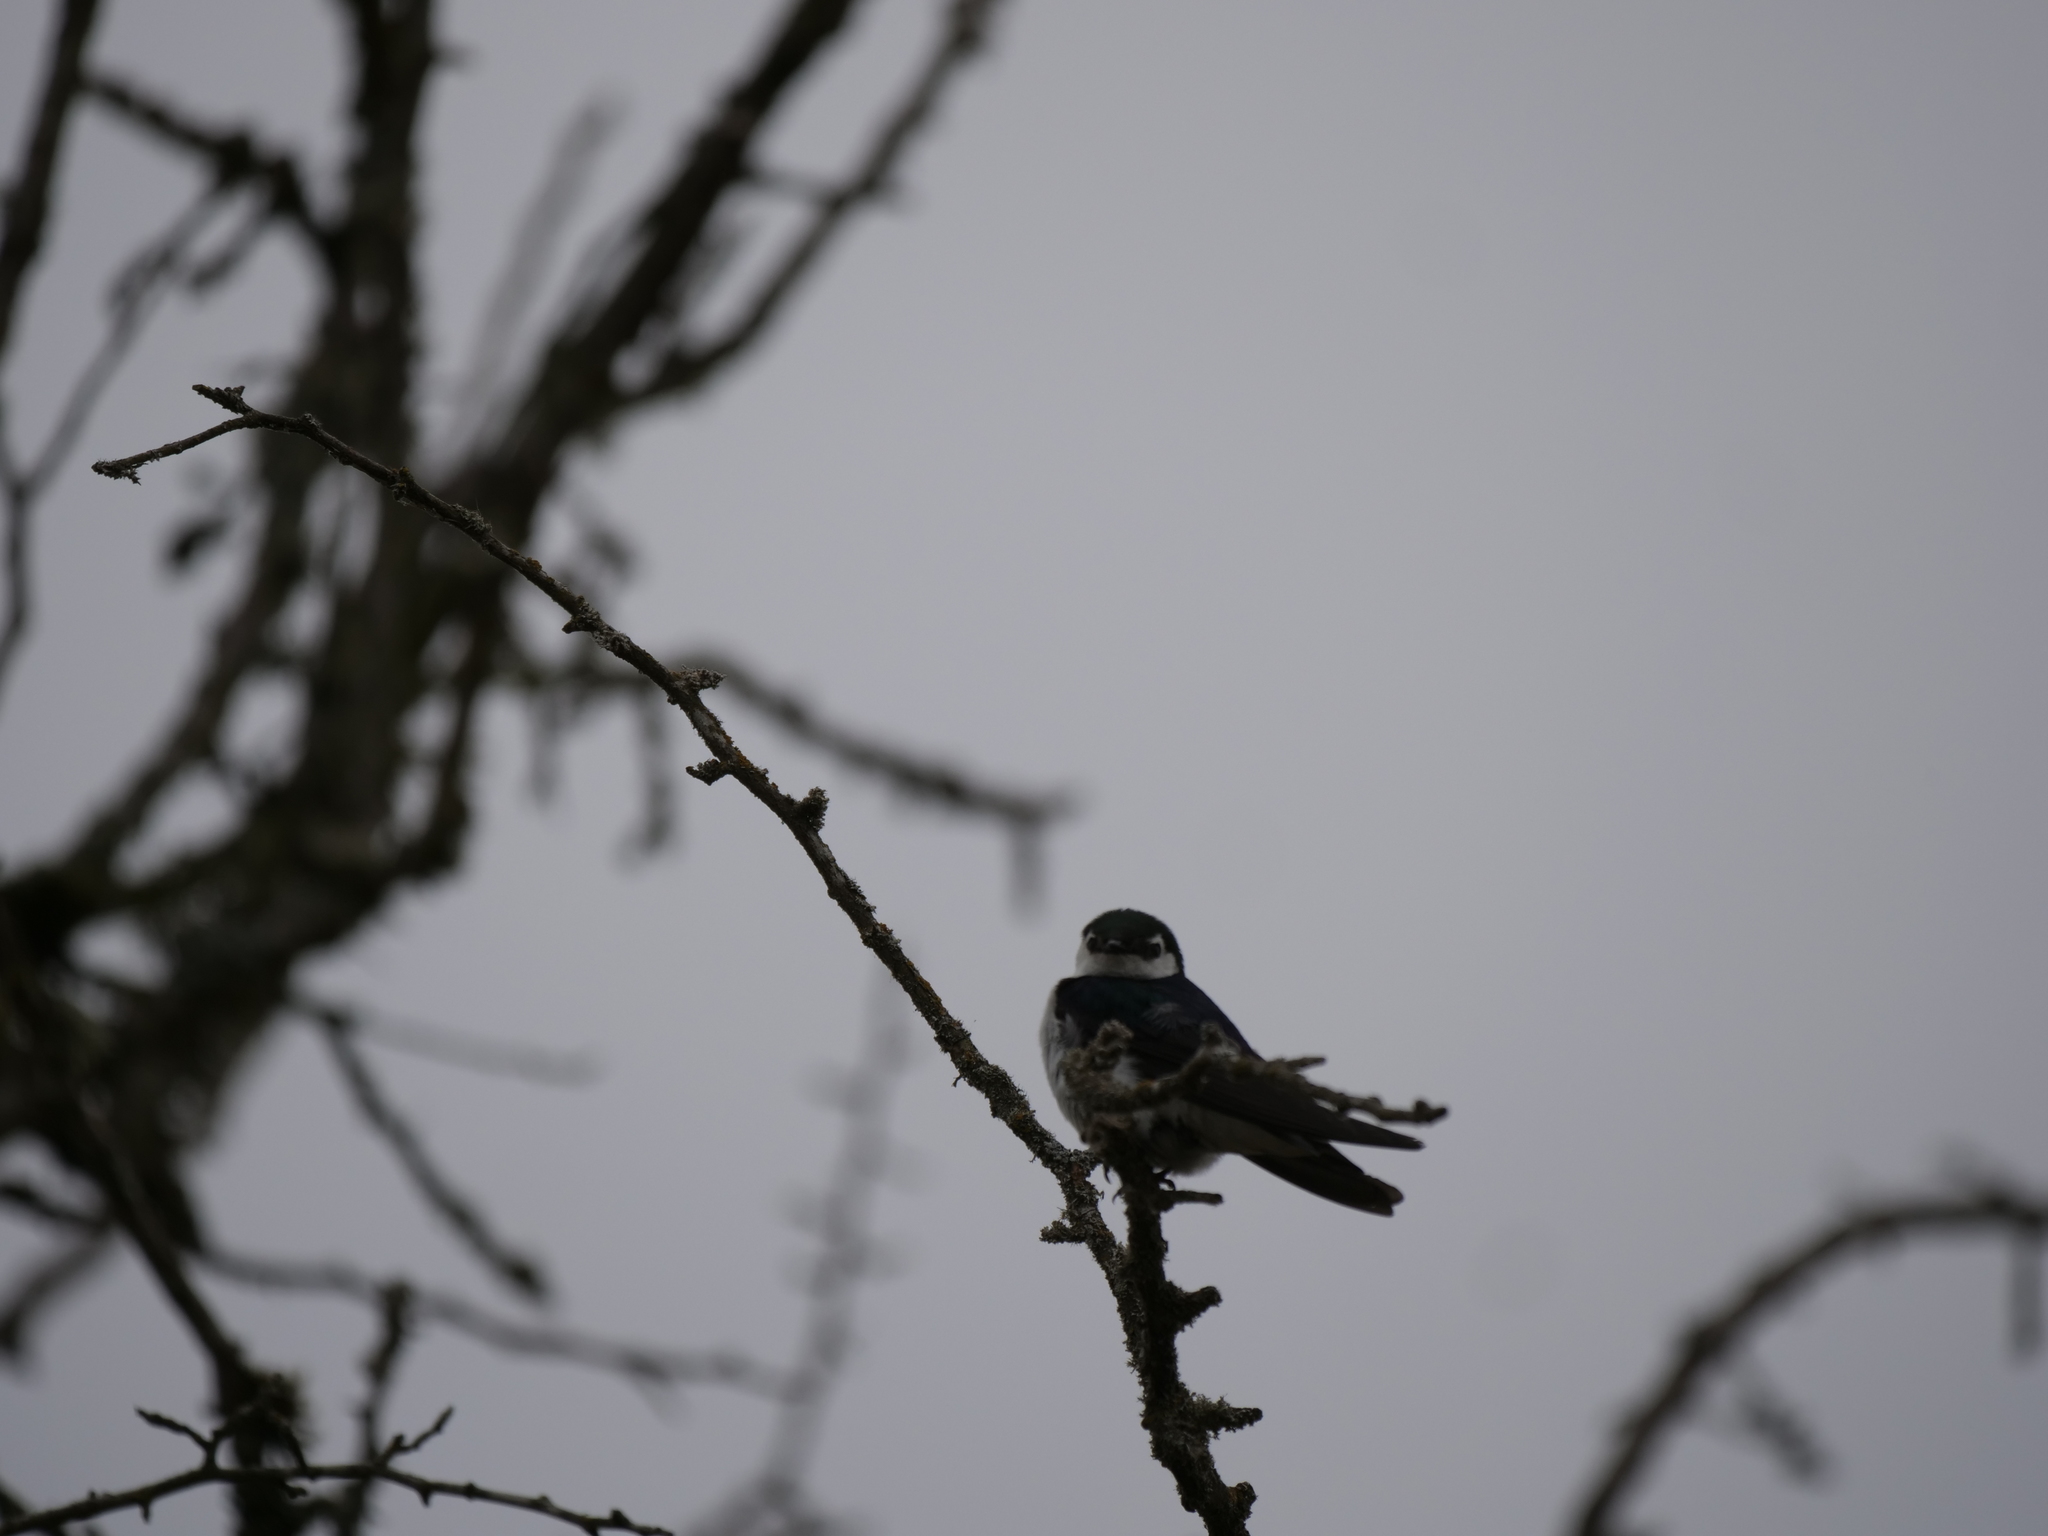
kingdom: Animalia
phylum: Chordata
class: Aves
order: Passeriformes
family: Hirundinidae
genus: Tachycineta
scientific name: Tachycineta thalassina
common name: Violet-green swallow
